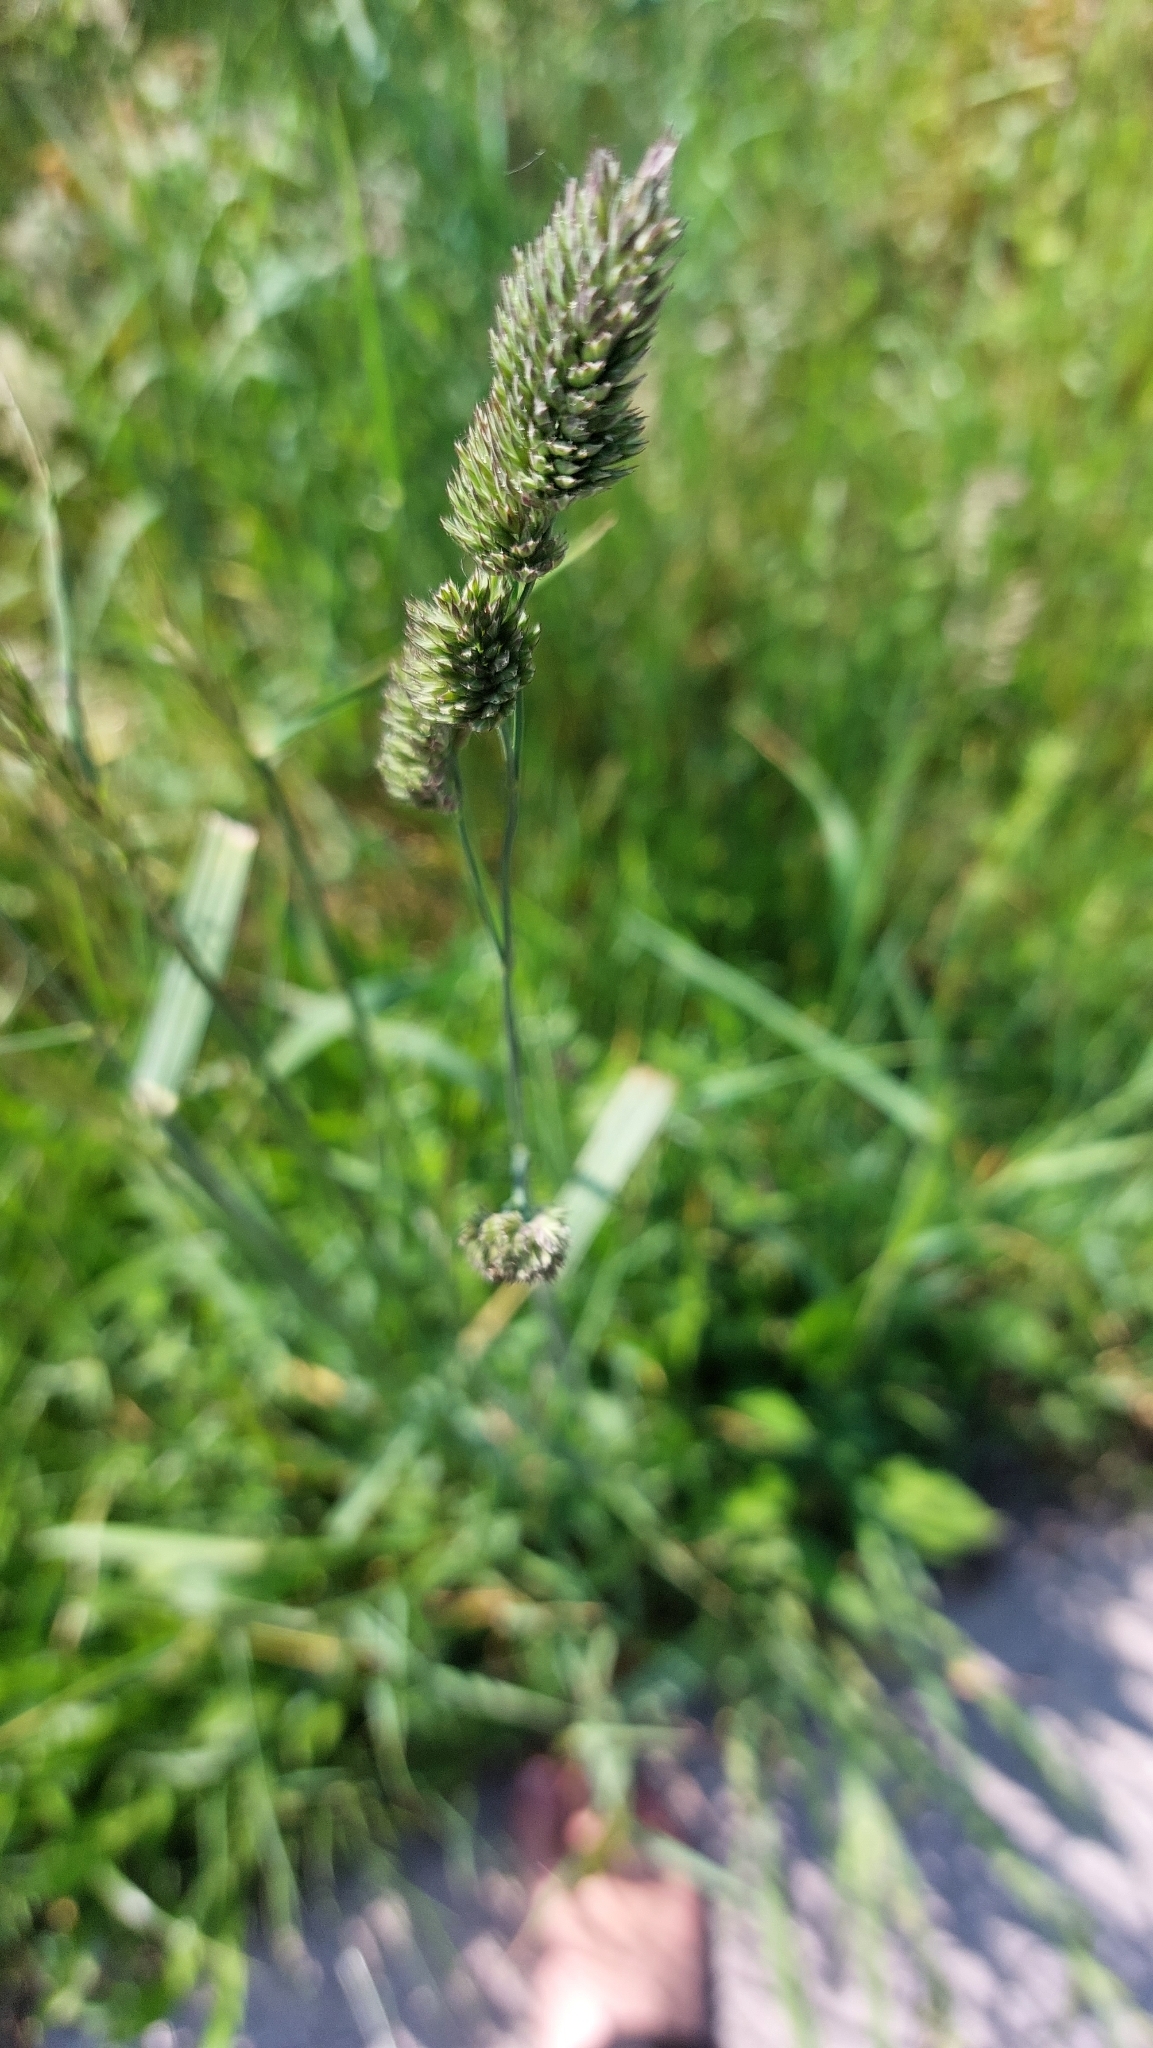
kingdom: Plantae
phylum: Tracheophyta
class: Liliopsida
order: Poales
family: Poaceae
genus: Dactylis
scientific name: Dactylis glomerata
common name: Orchardgrass
